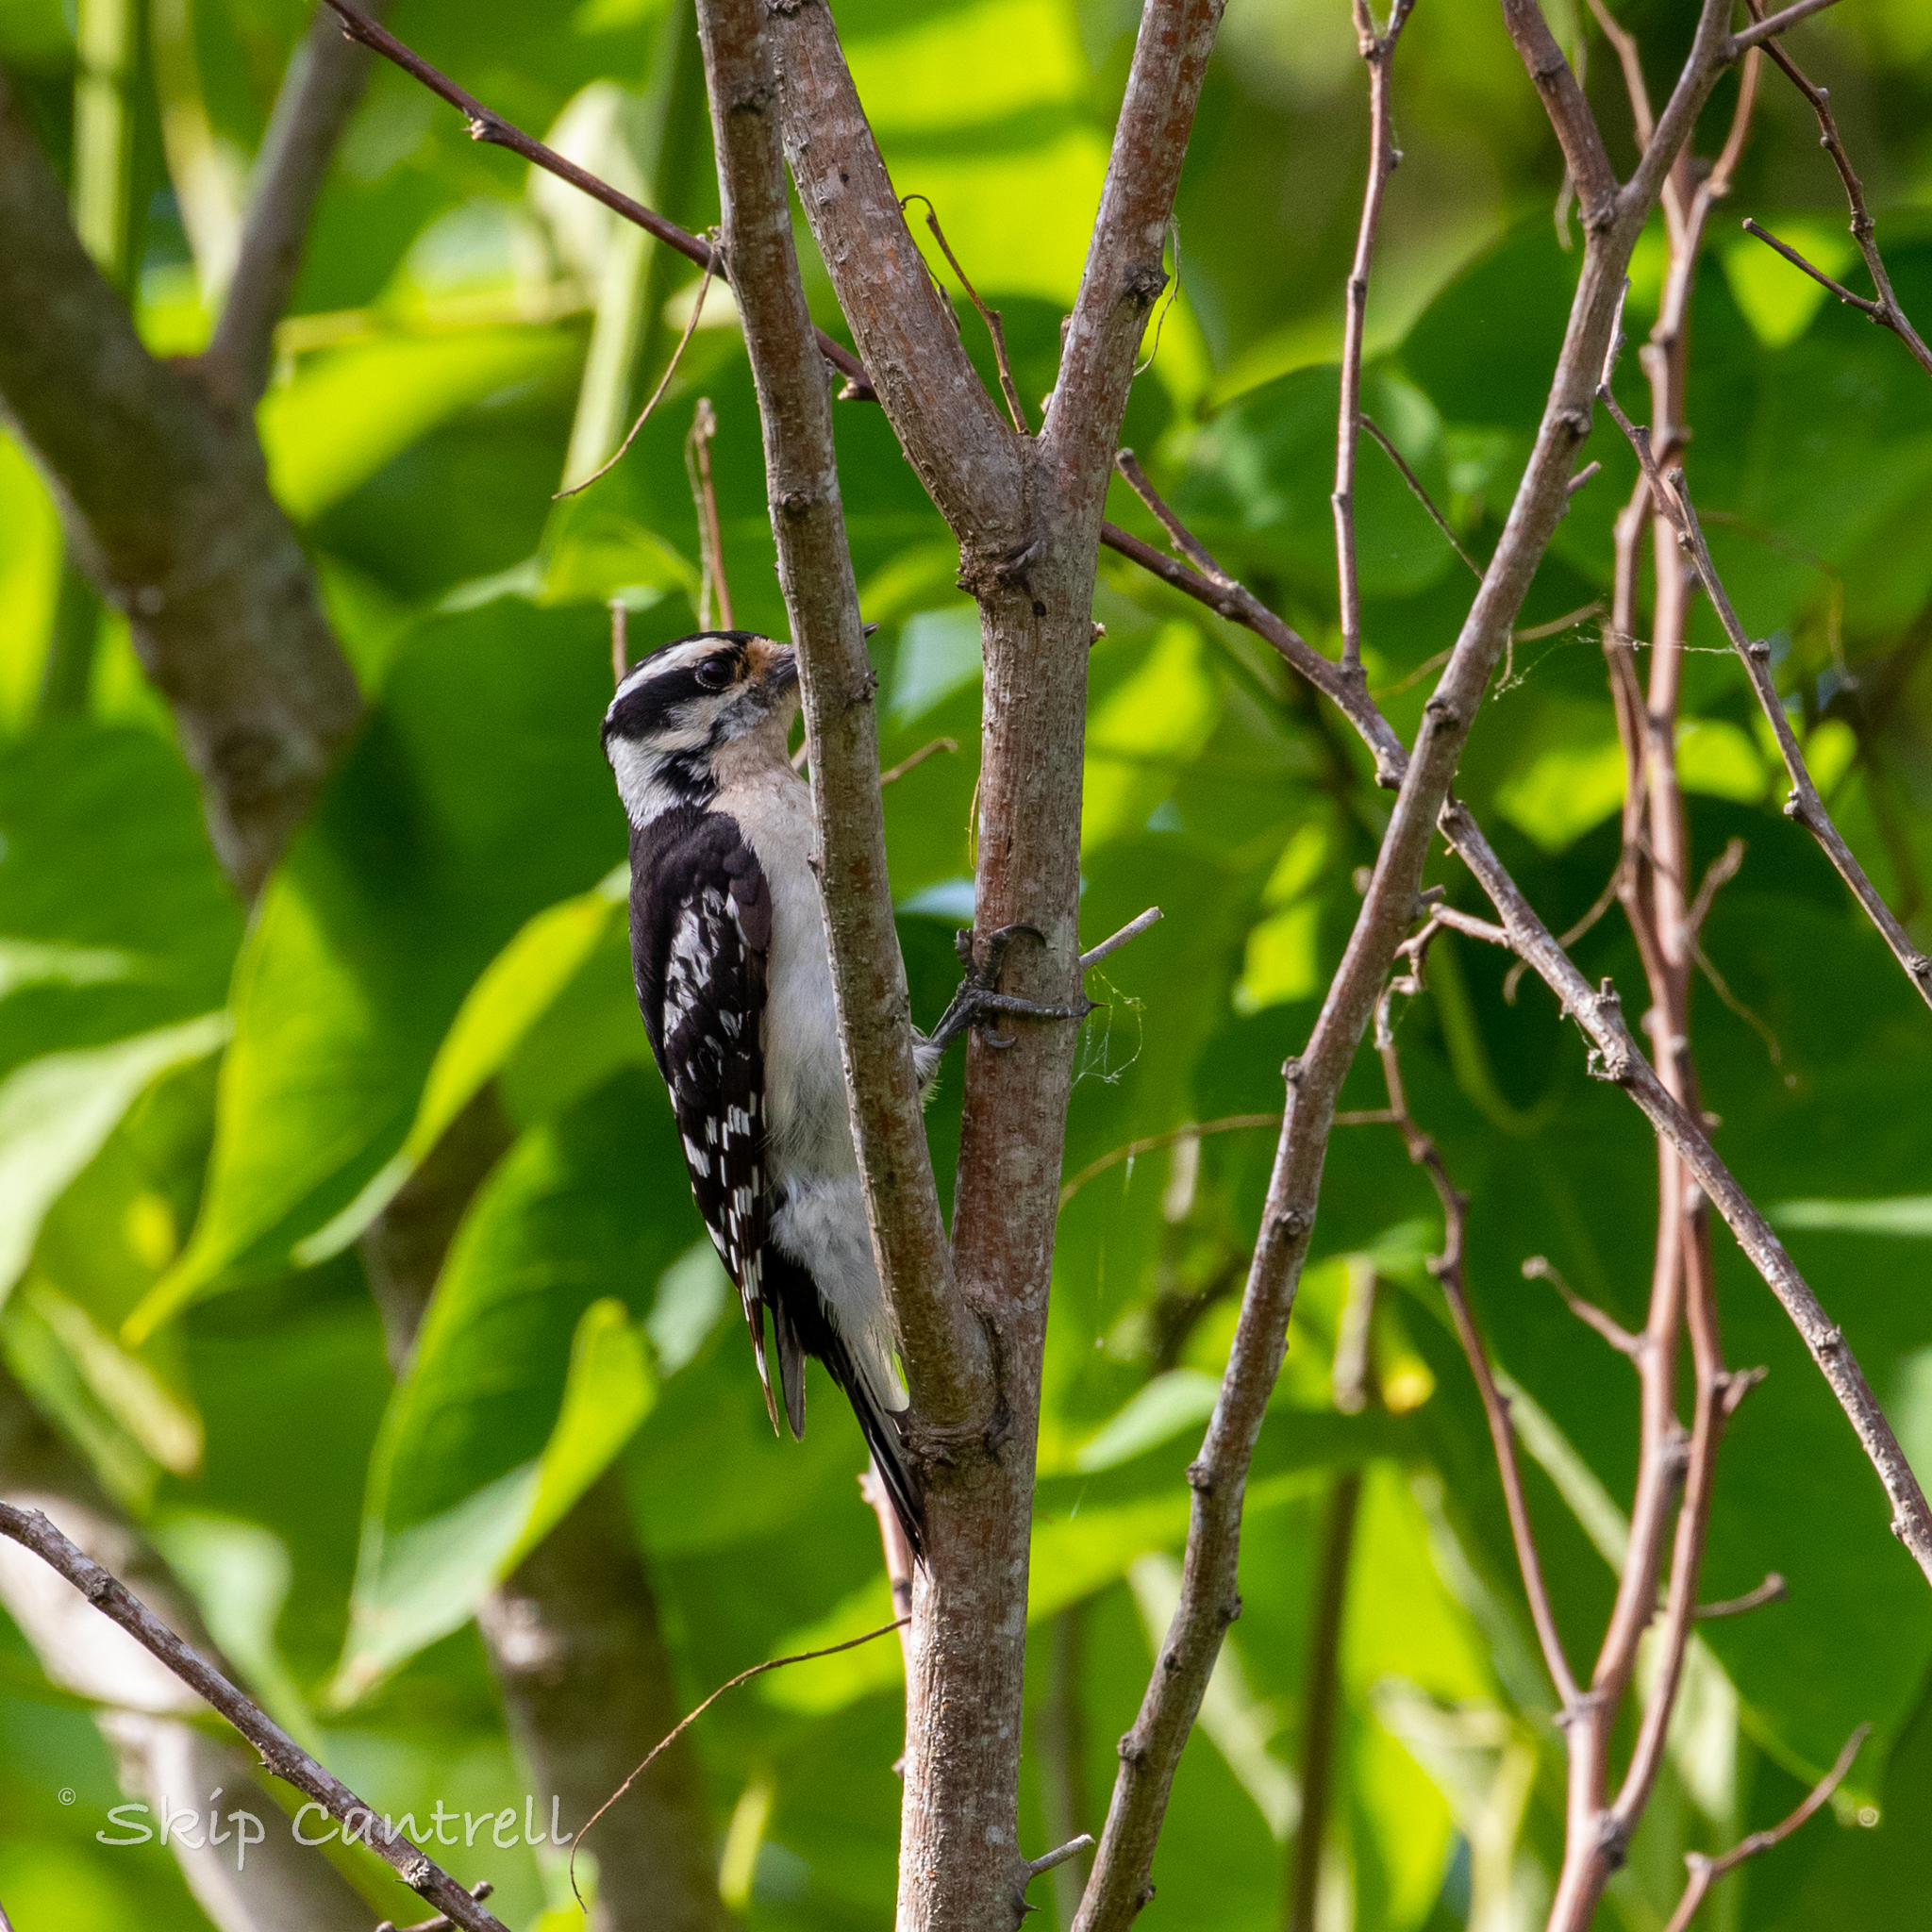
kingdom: Animalia
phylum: Chordata
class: Aves
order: Piciformes
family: Picidae
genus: Dryobates
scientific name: Dryobates pubescens
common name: Downy woodpecker
